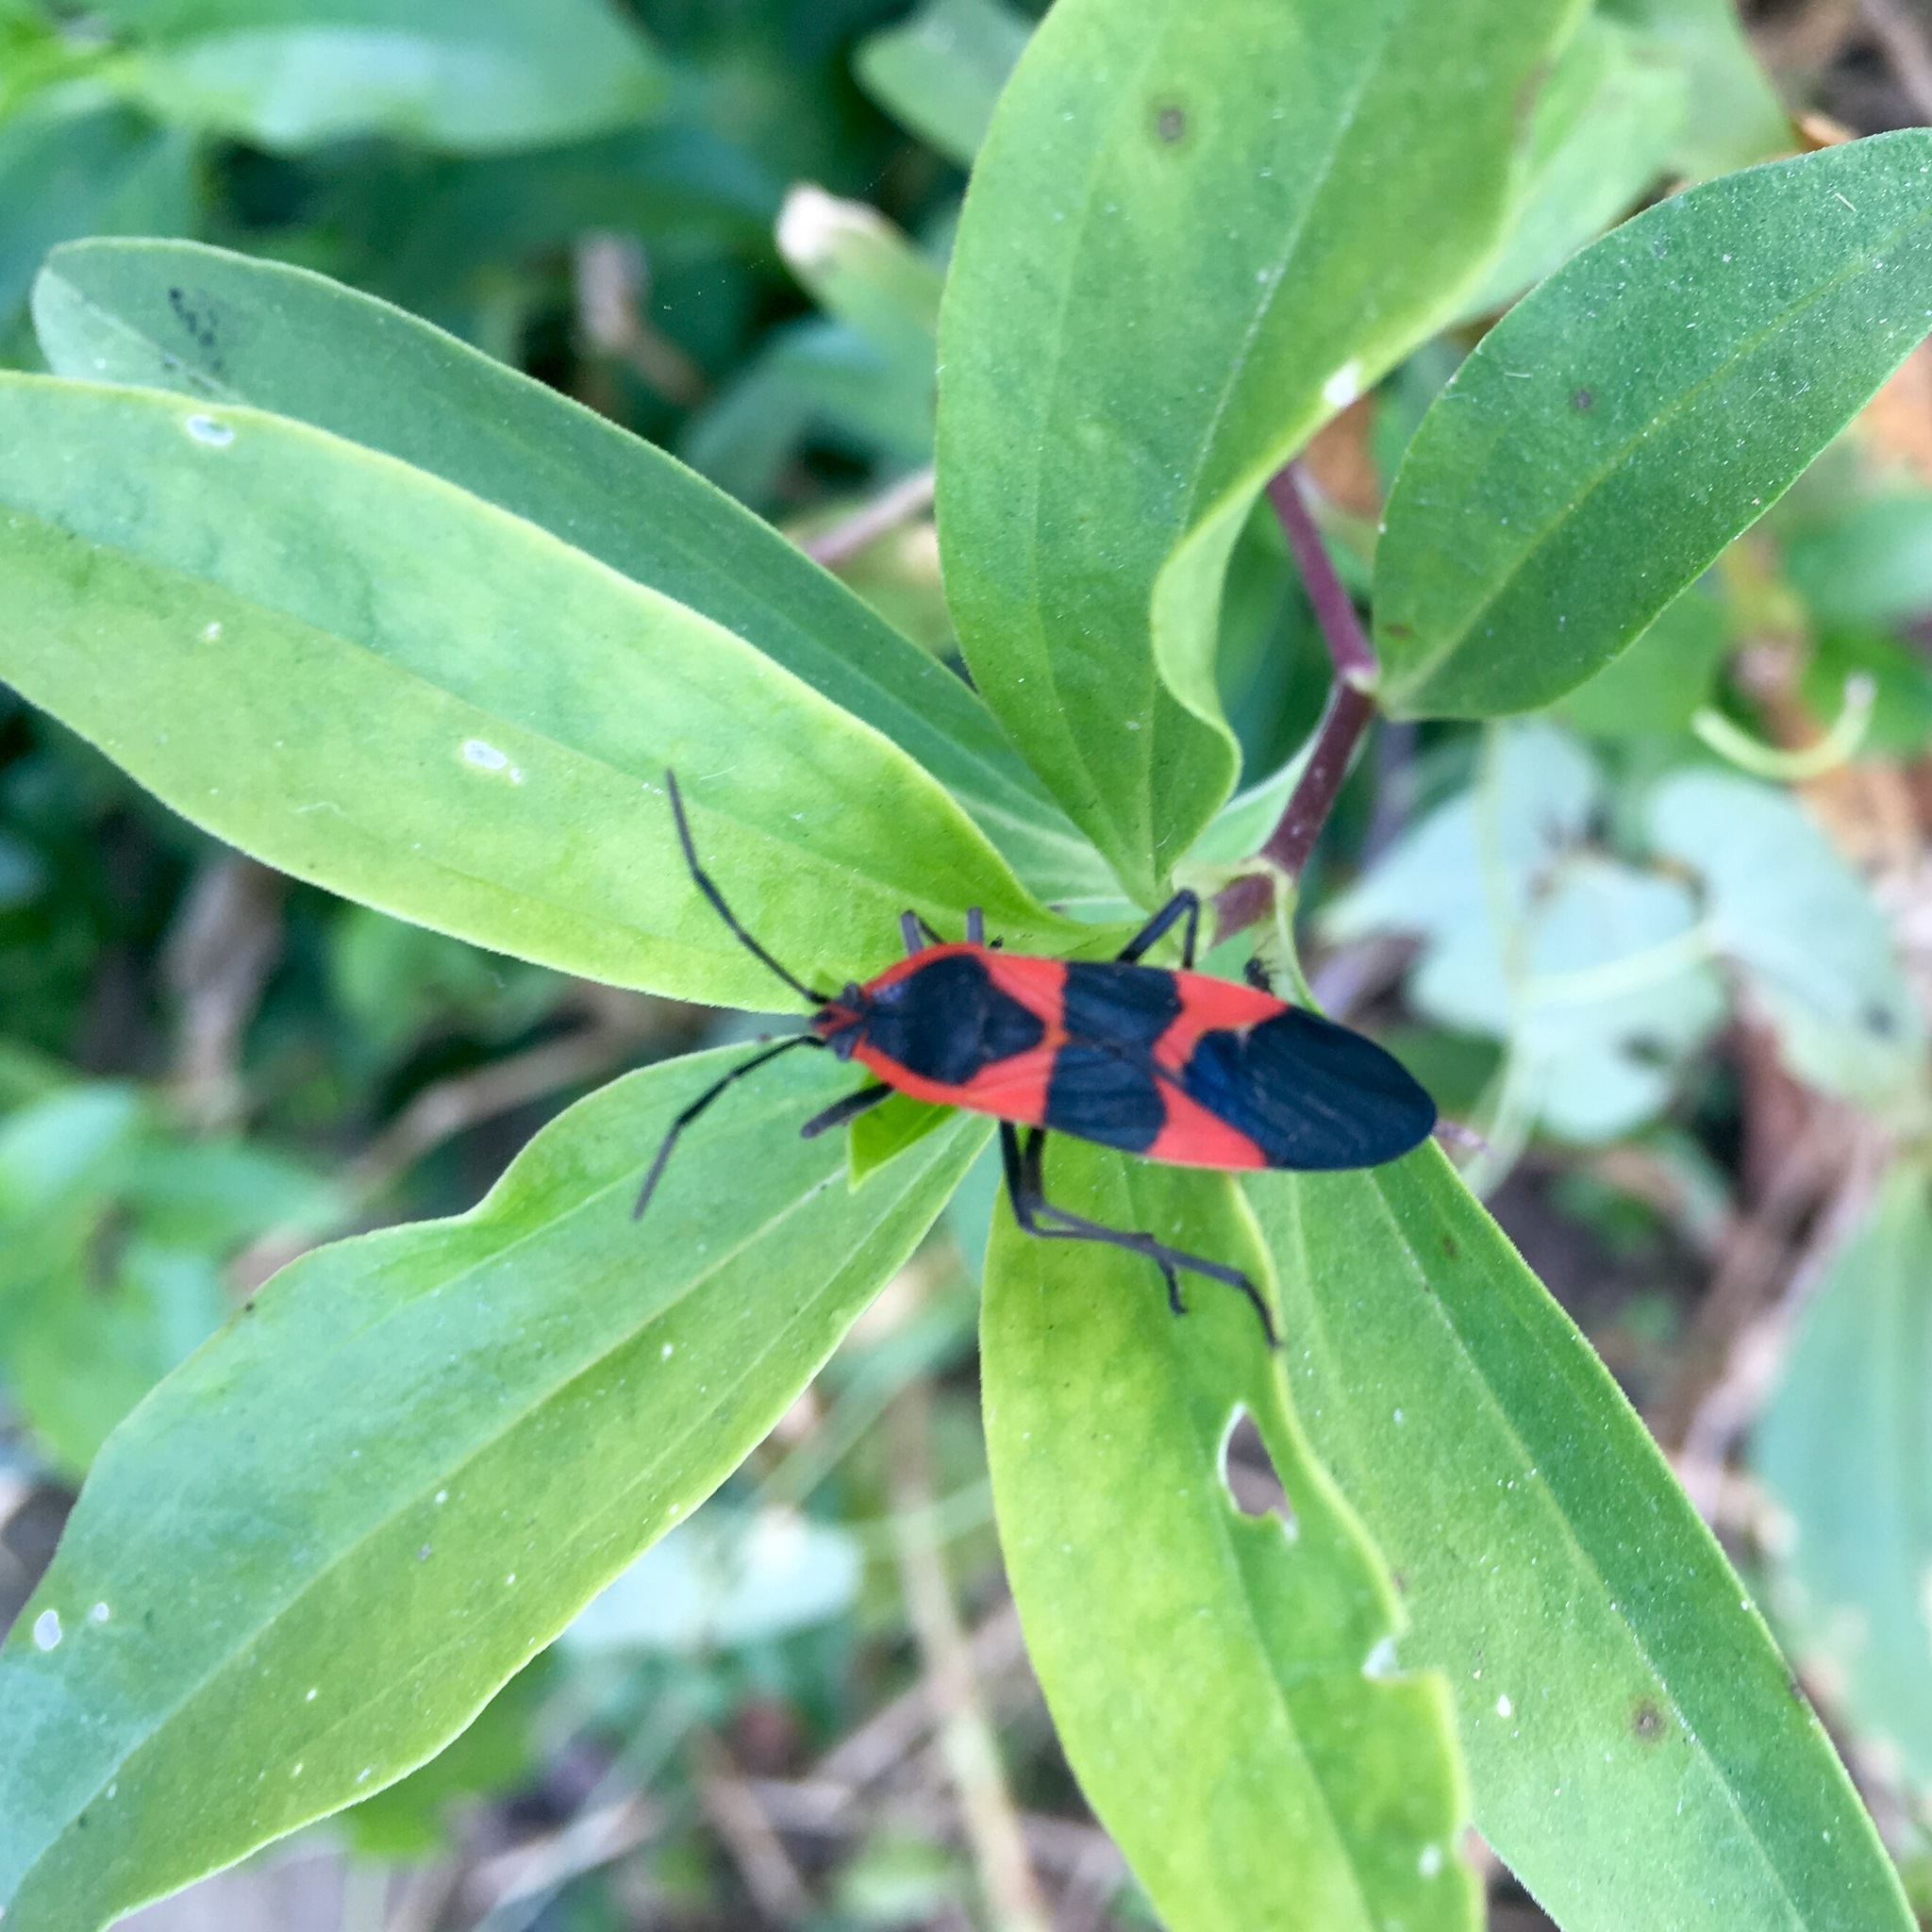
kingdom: Animalia
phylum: Arthropoda
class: Insecta
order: Hemiptera
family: Lygaeidae
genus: Oncopeltus
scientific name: Oncopeltus fasciatus
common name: Large milkweed bug
